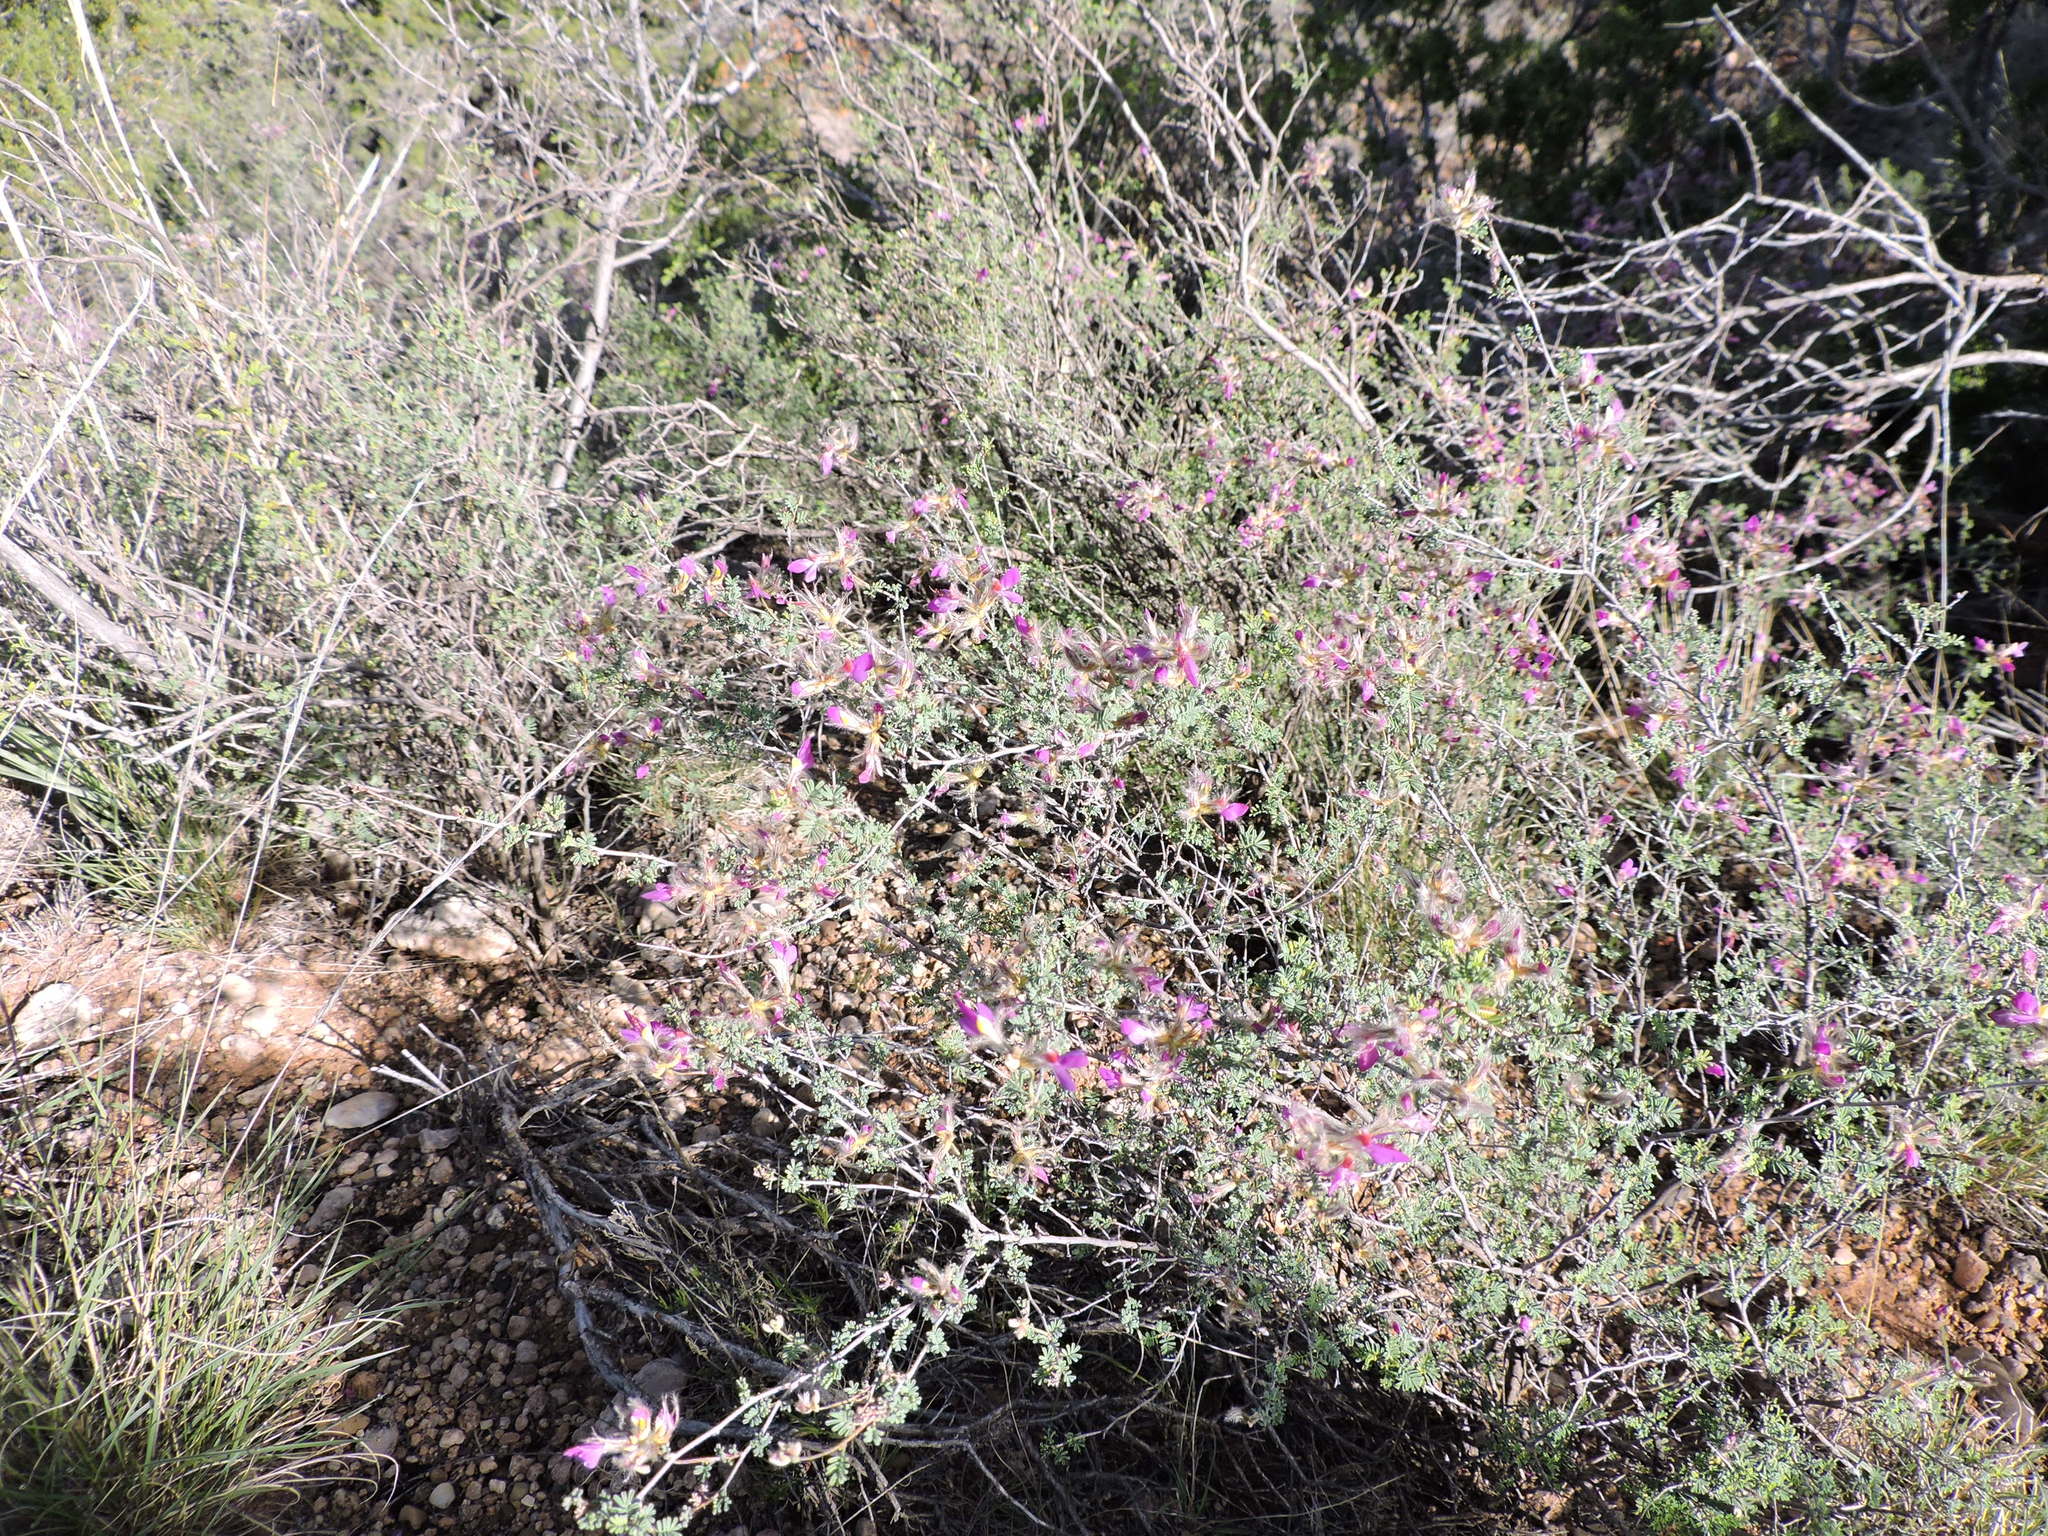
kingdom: Plantae
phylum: Tracheophyta
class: Magnoliopsida
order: Fabales
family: Fabaceae
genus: Dalea
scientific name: Dalea formosa
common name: Feather-plume dalea
